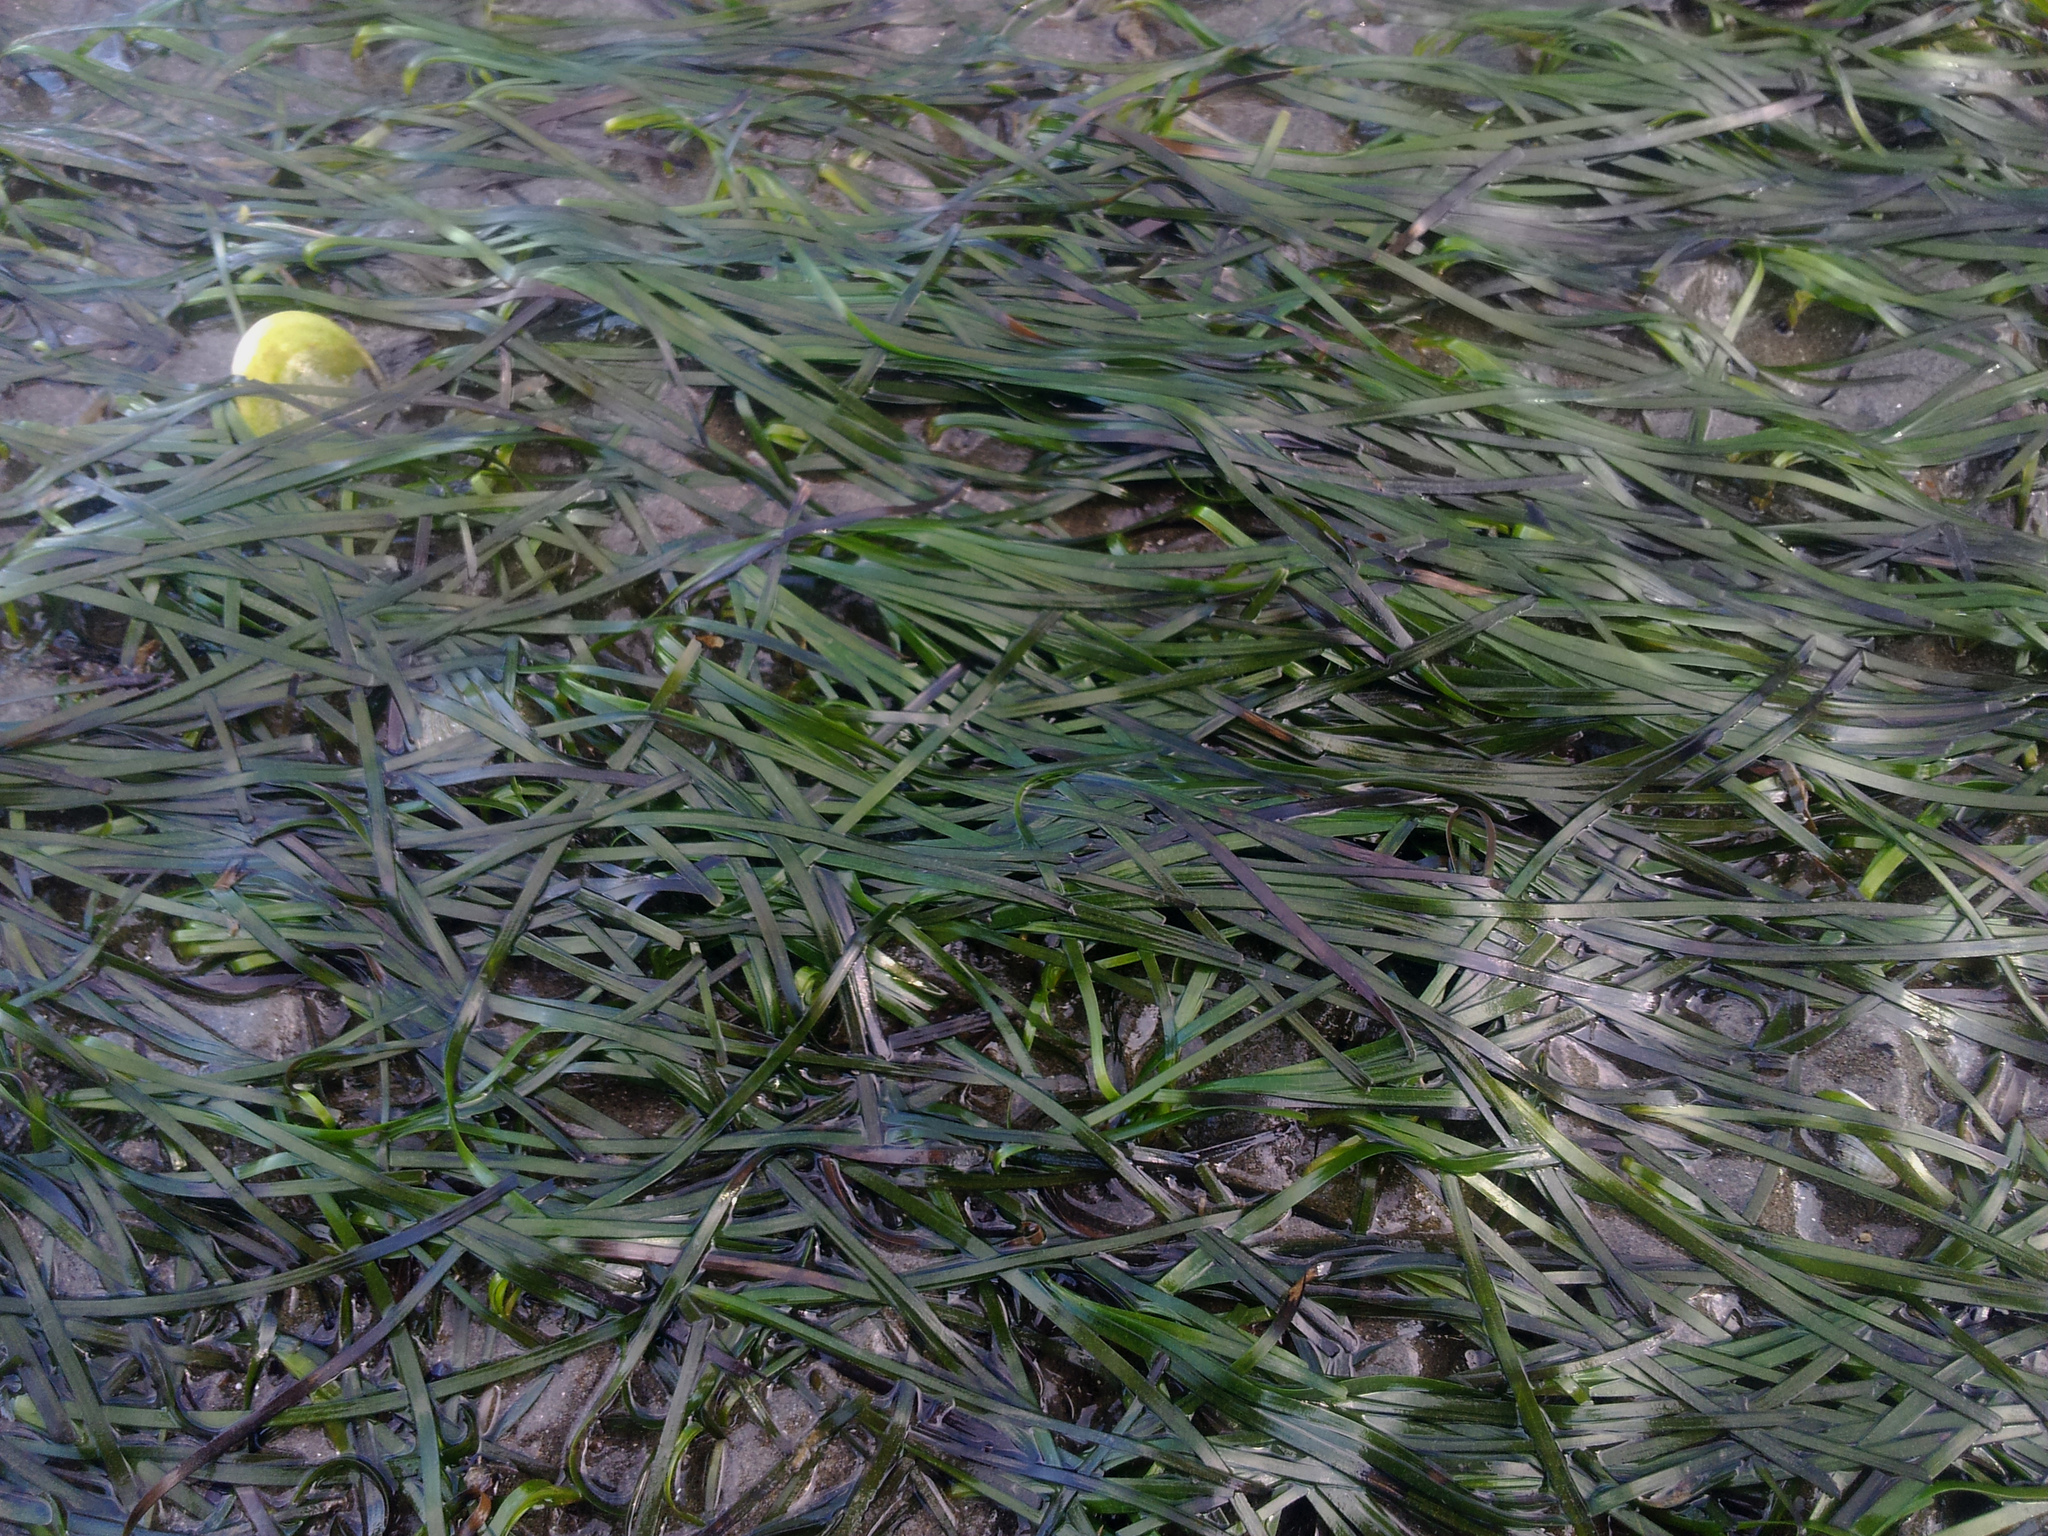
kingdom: Plantae
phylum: Tracheophyta
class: Liliopsida
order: Alismatales
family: Zosteraceae
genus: Zostera
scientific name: Zostera novazelandica
